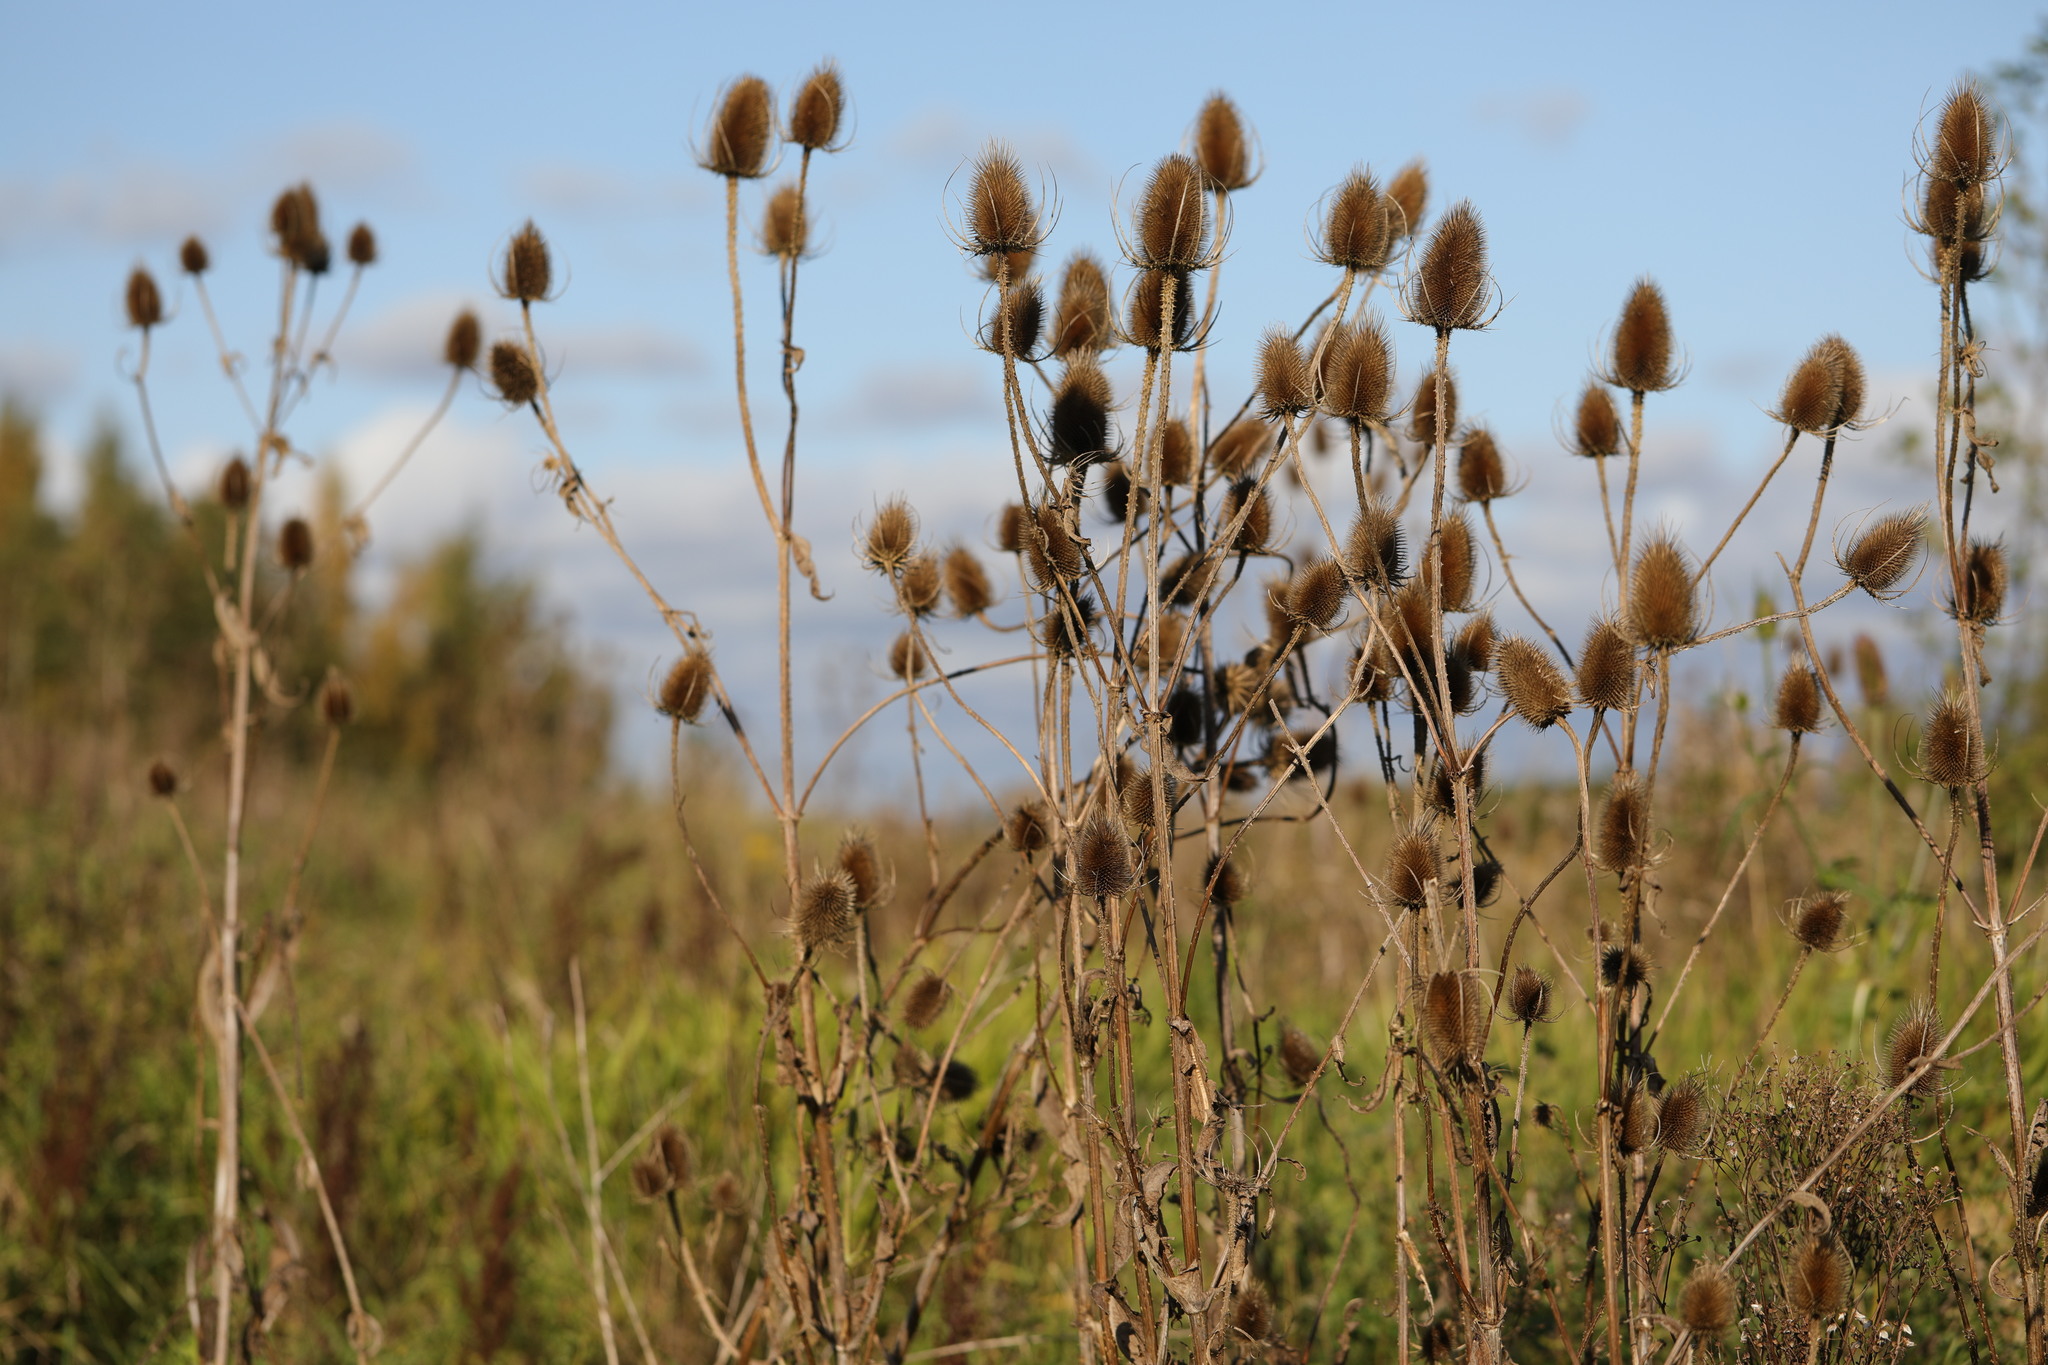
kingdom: Plantae
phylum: Tracheophyta
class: Magnoliopsida
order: Dipsacales
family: Caprifoliaceae
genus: Dipsacus
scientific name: Dipsacus fullonum
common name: Teasel
